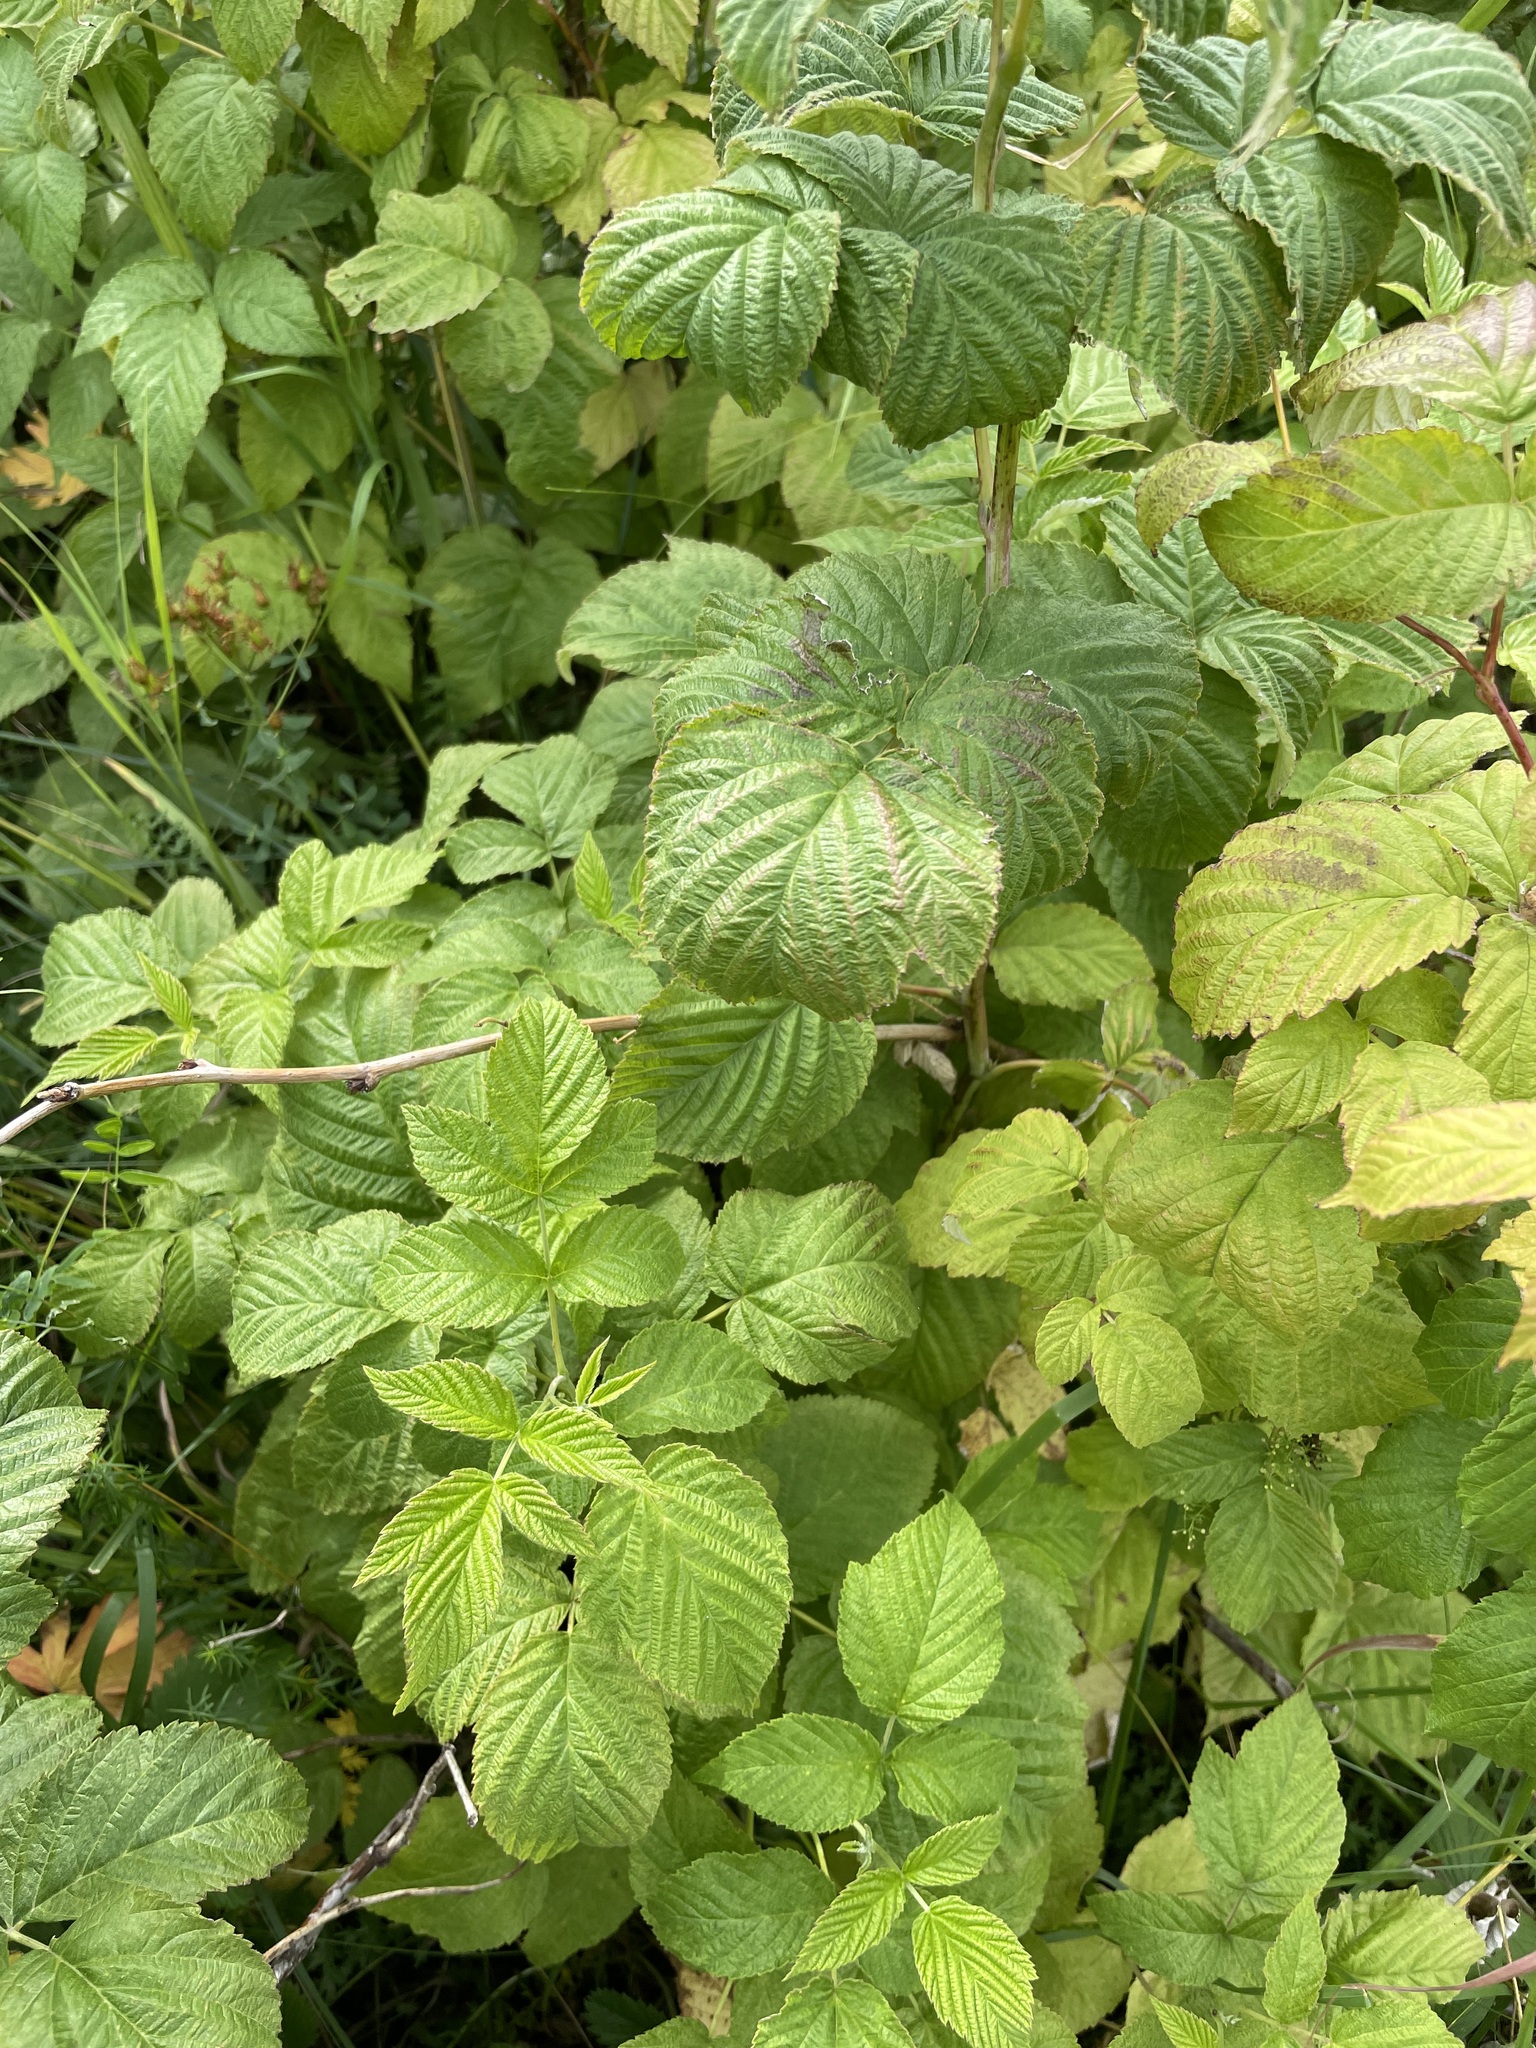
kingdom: Plantae
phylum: Tracheophyta
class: Magnoliopsida
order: Rosales
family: Rosaceae
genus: Rubus
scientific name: Rubus idaeus
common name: Raspberry
